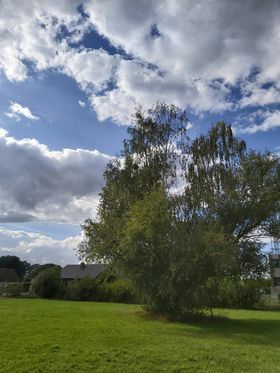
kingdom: Animalia
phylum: Arthropoda
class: Insecta
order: Hymenoptera
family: Vespidae
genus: Vespa
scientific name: Vespa velutina
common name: Asian hornet
